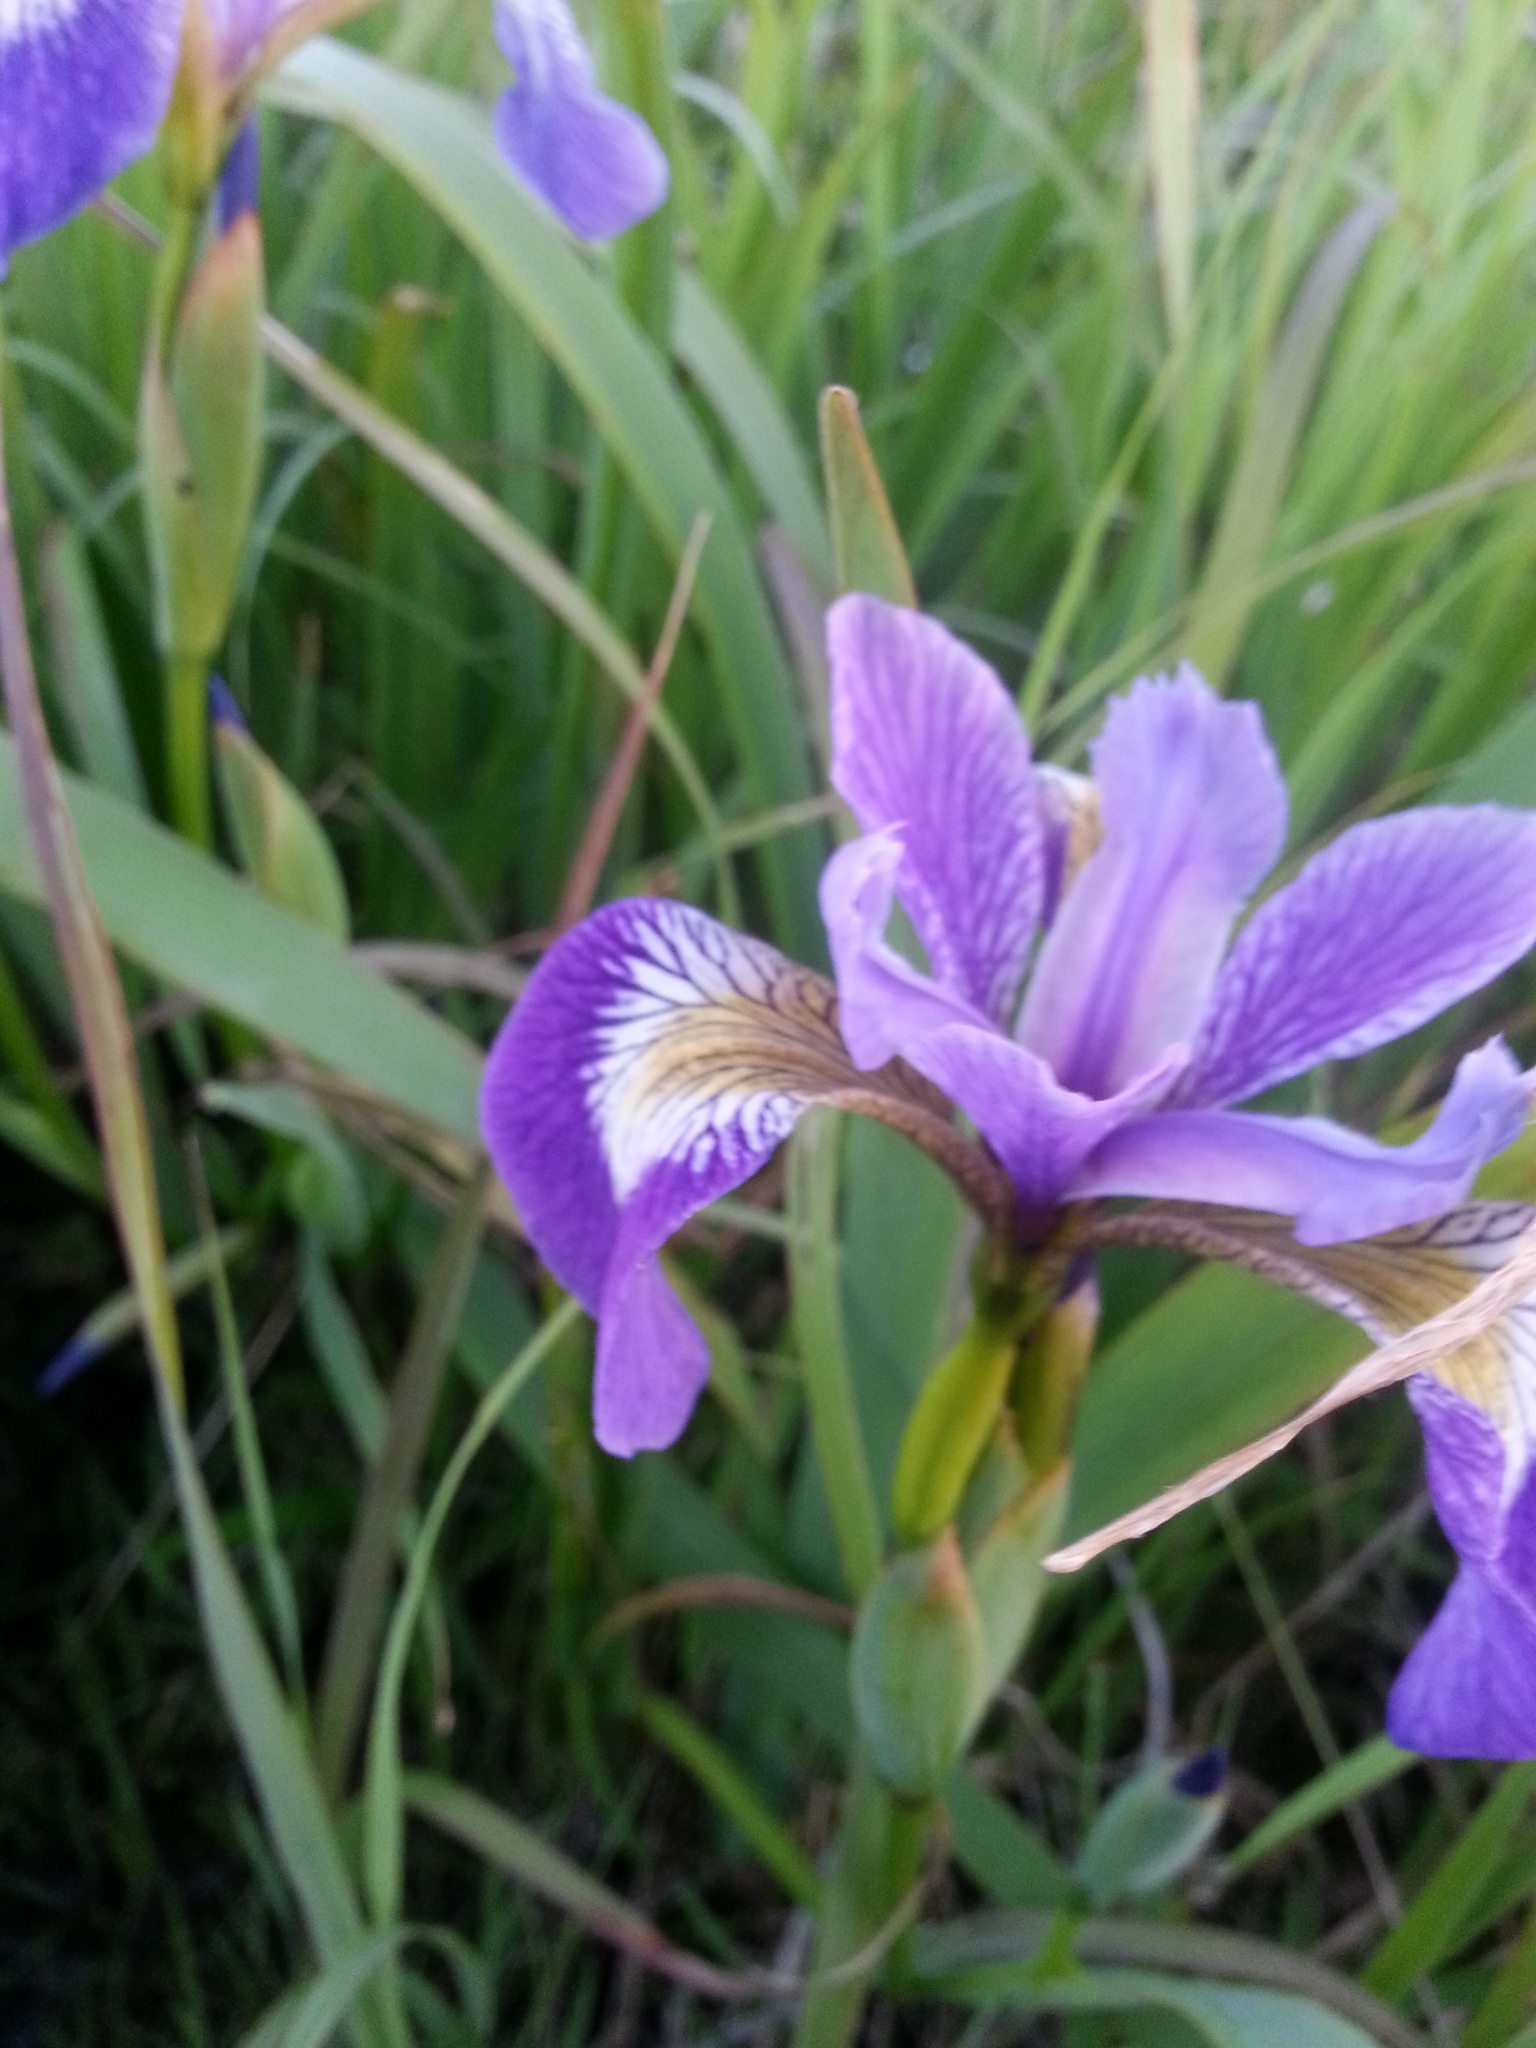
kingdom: Plantae
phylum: Tracheophyta
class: Liliopsida
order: Asparagales
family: Iridaceae
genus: Iris
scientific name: Iris versicolor
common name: Purple iris
